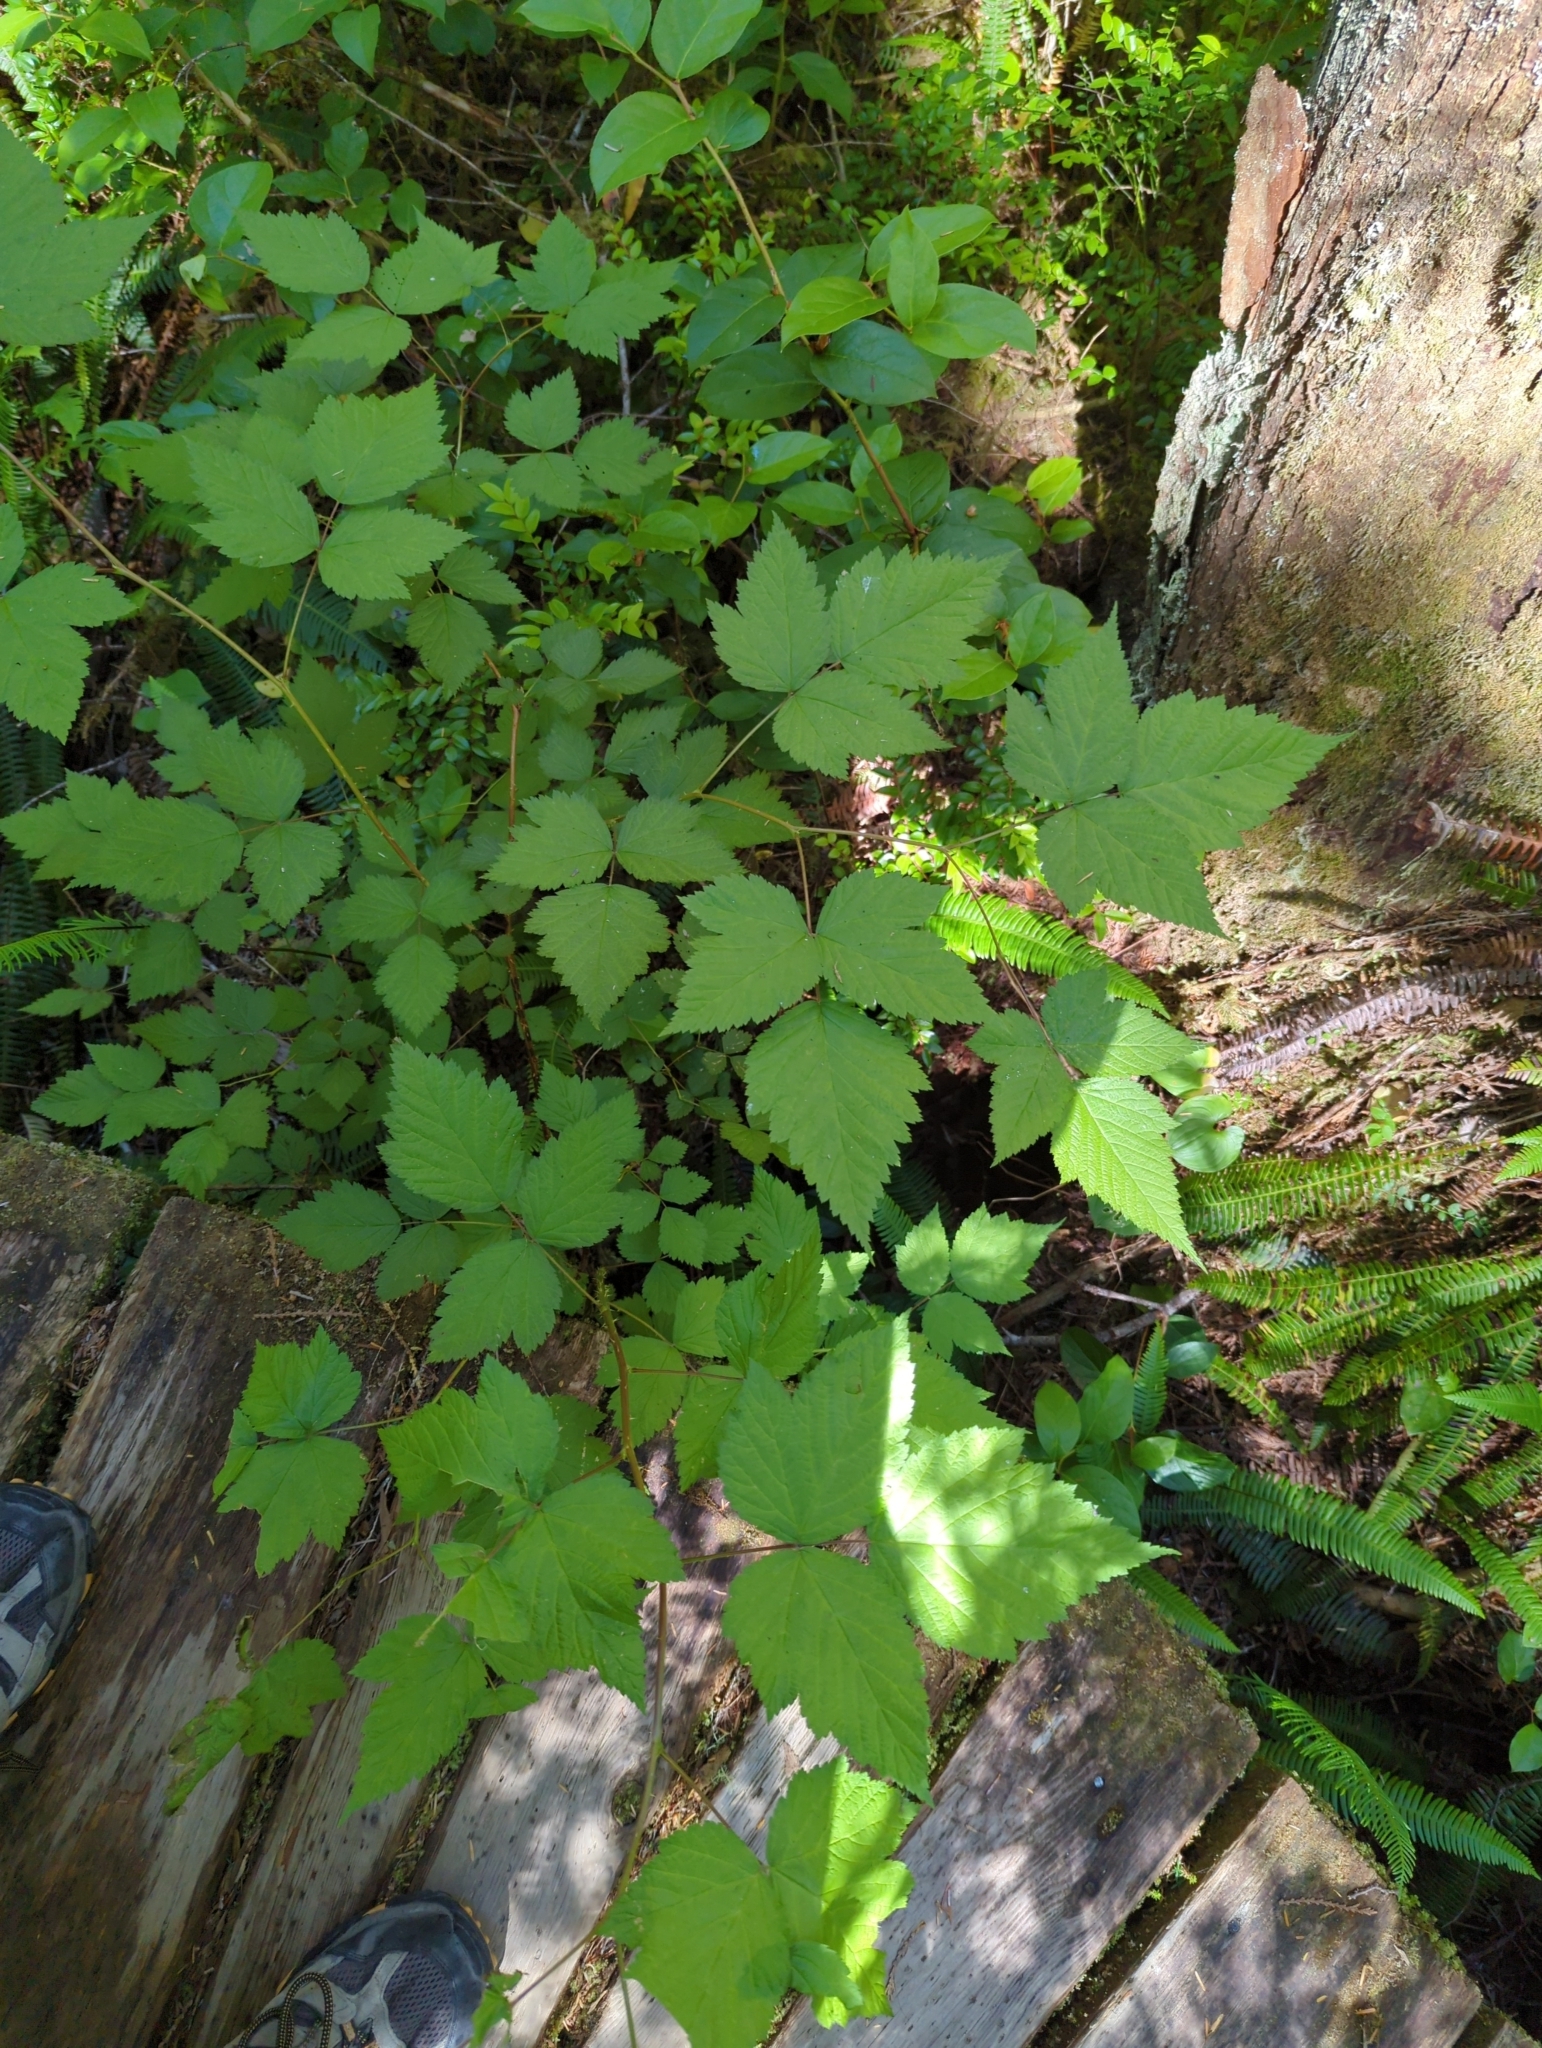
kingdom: Plantae
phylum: Tracheophyta
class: Magnoliopsida
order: Rosales
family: Rosaceae
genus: Rubus
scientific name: Rubus spectabilis
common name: Salmonberry
